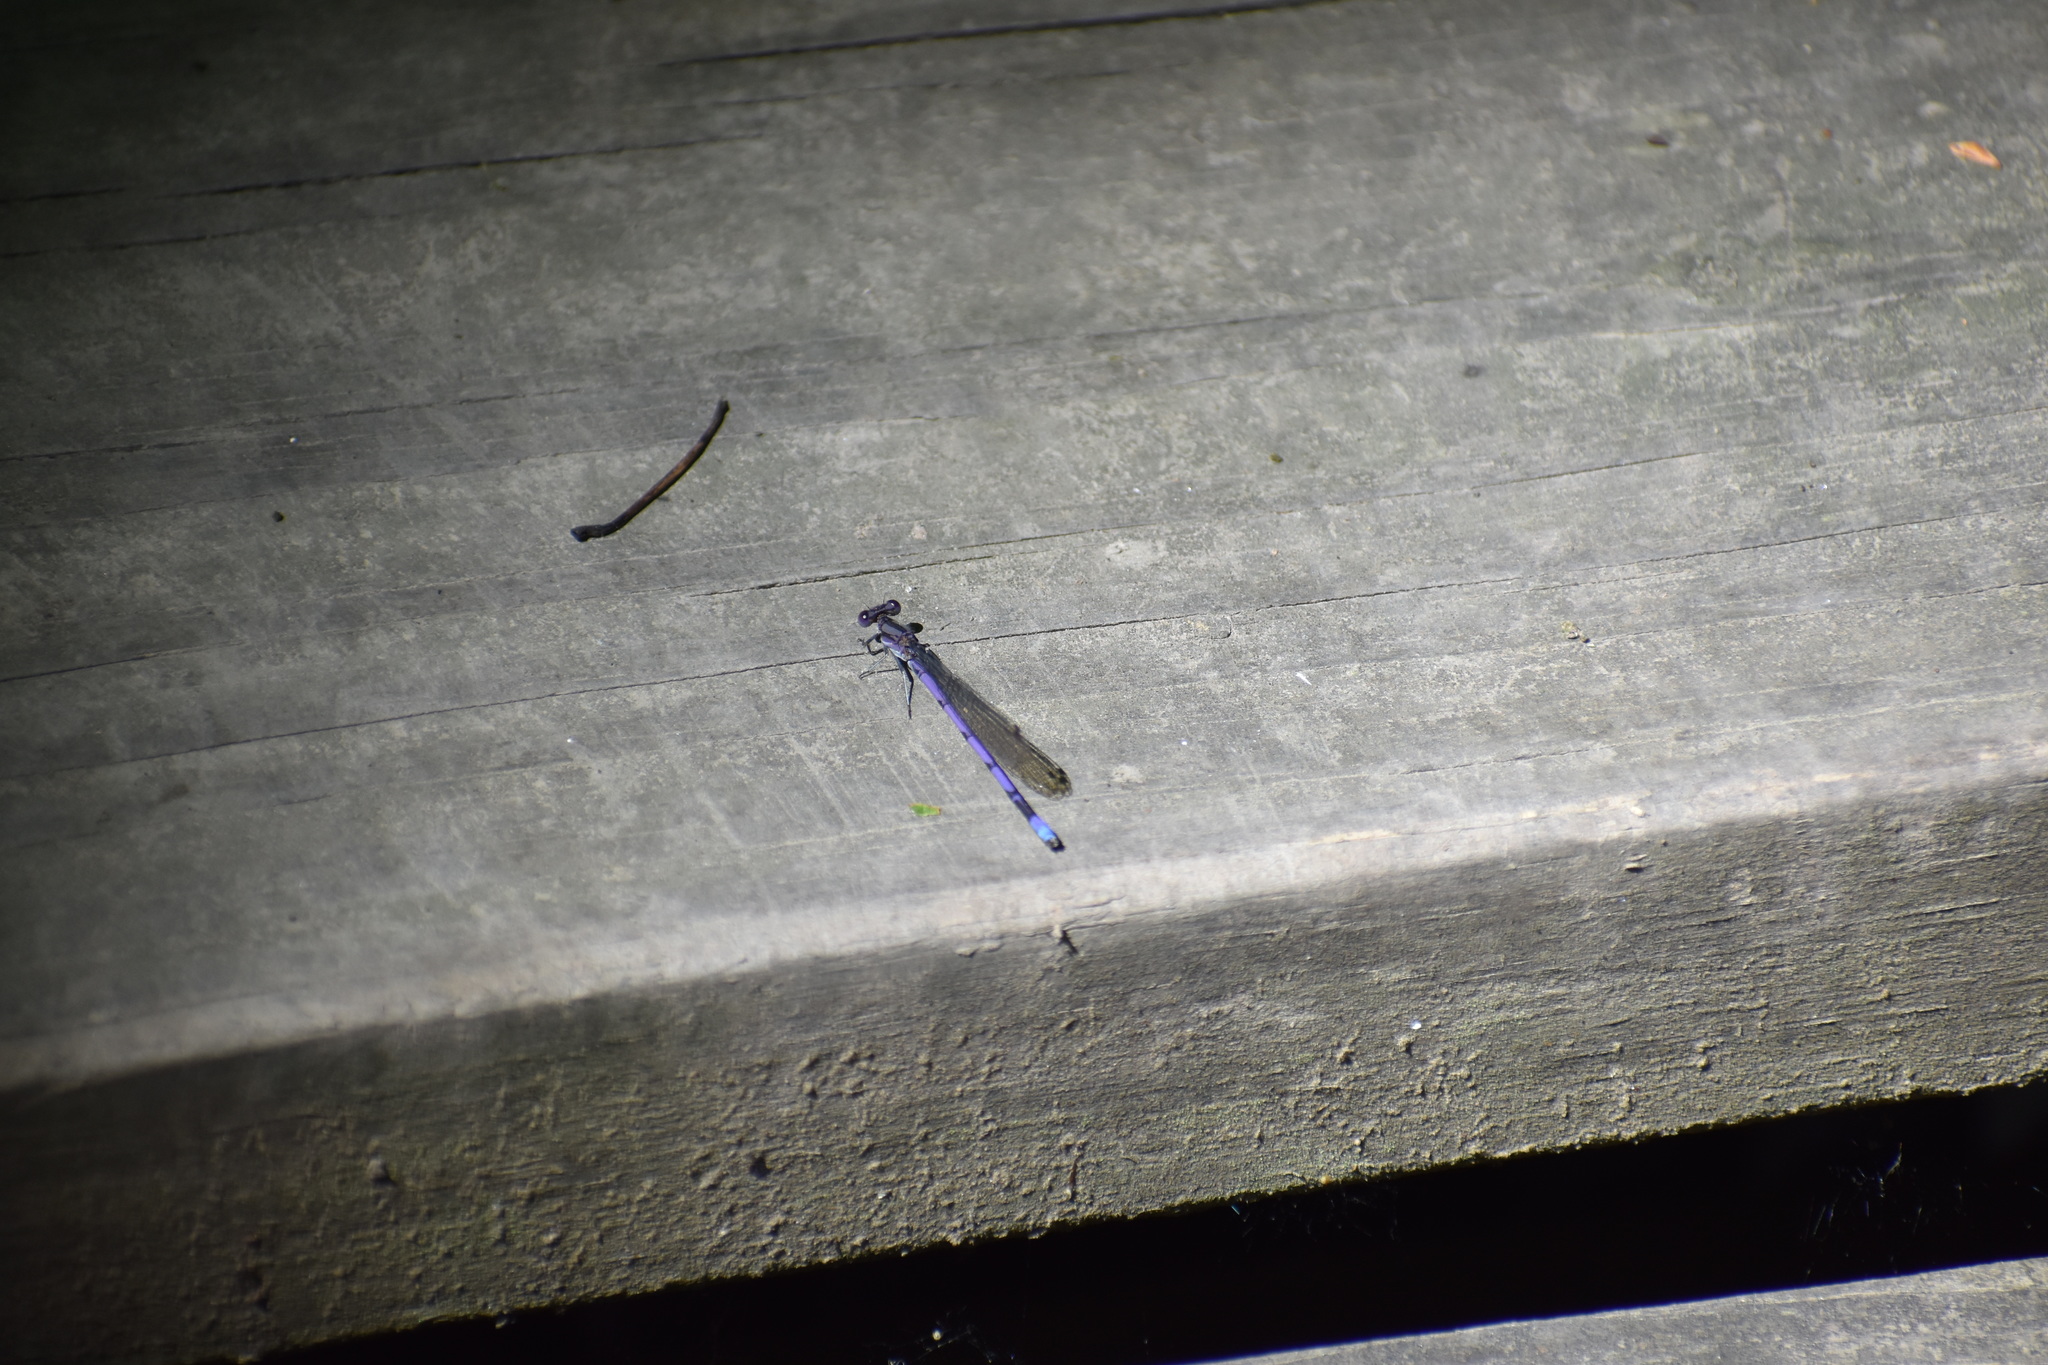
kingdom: Animalia
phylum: Arthropoda
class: Insecta
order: Odonata
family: Coenagrionidae
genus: Argia
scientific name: Argia fumipennis
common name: Variable dancer
